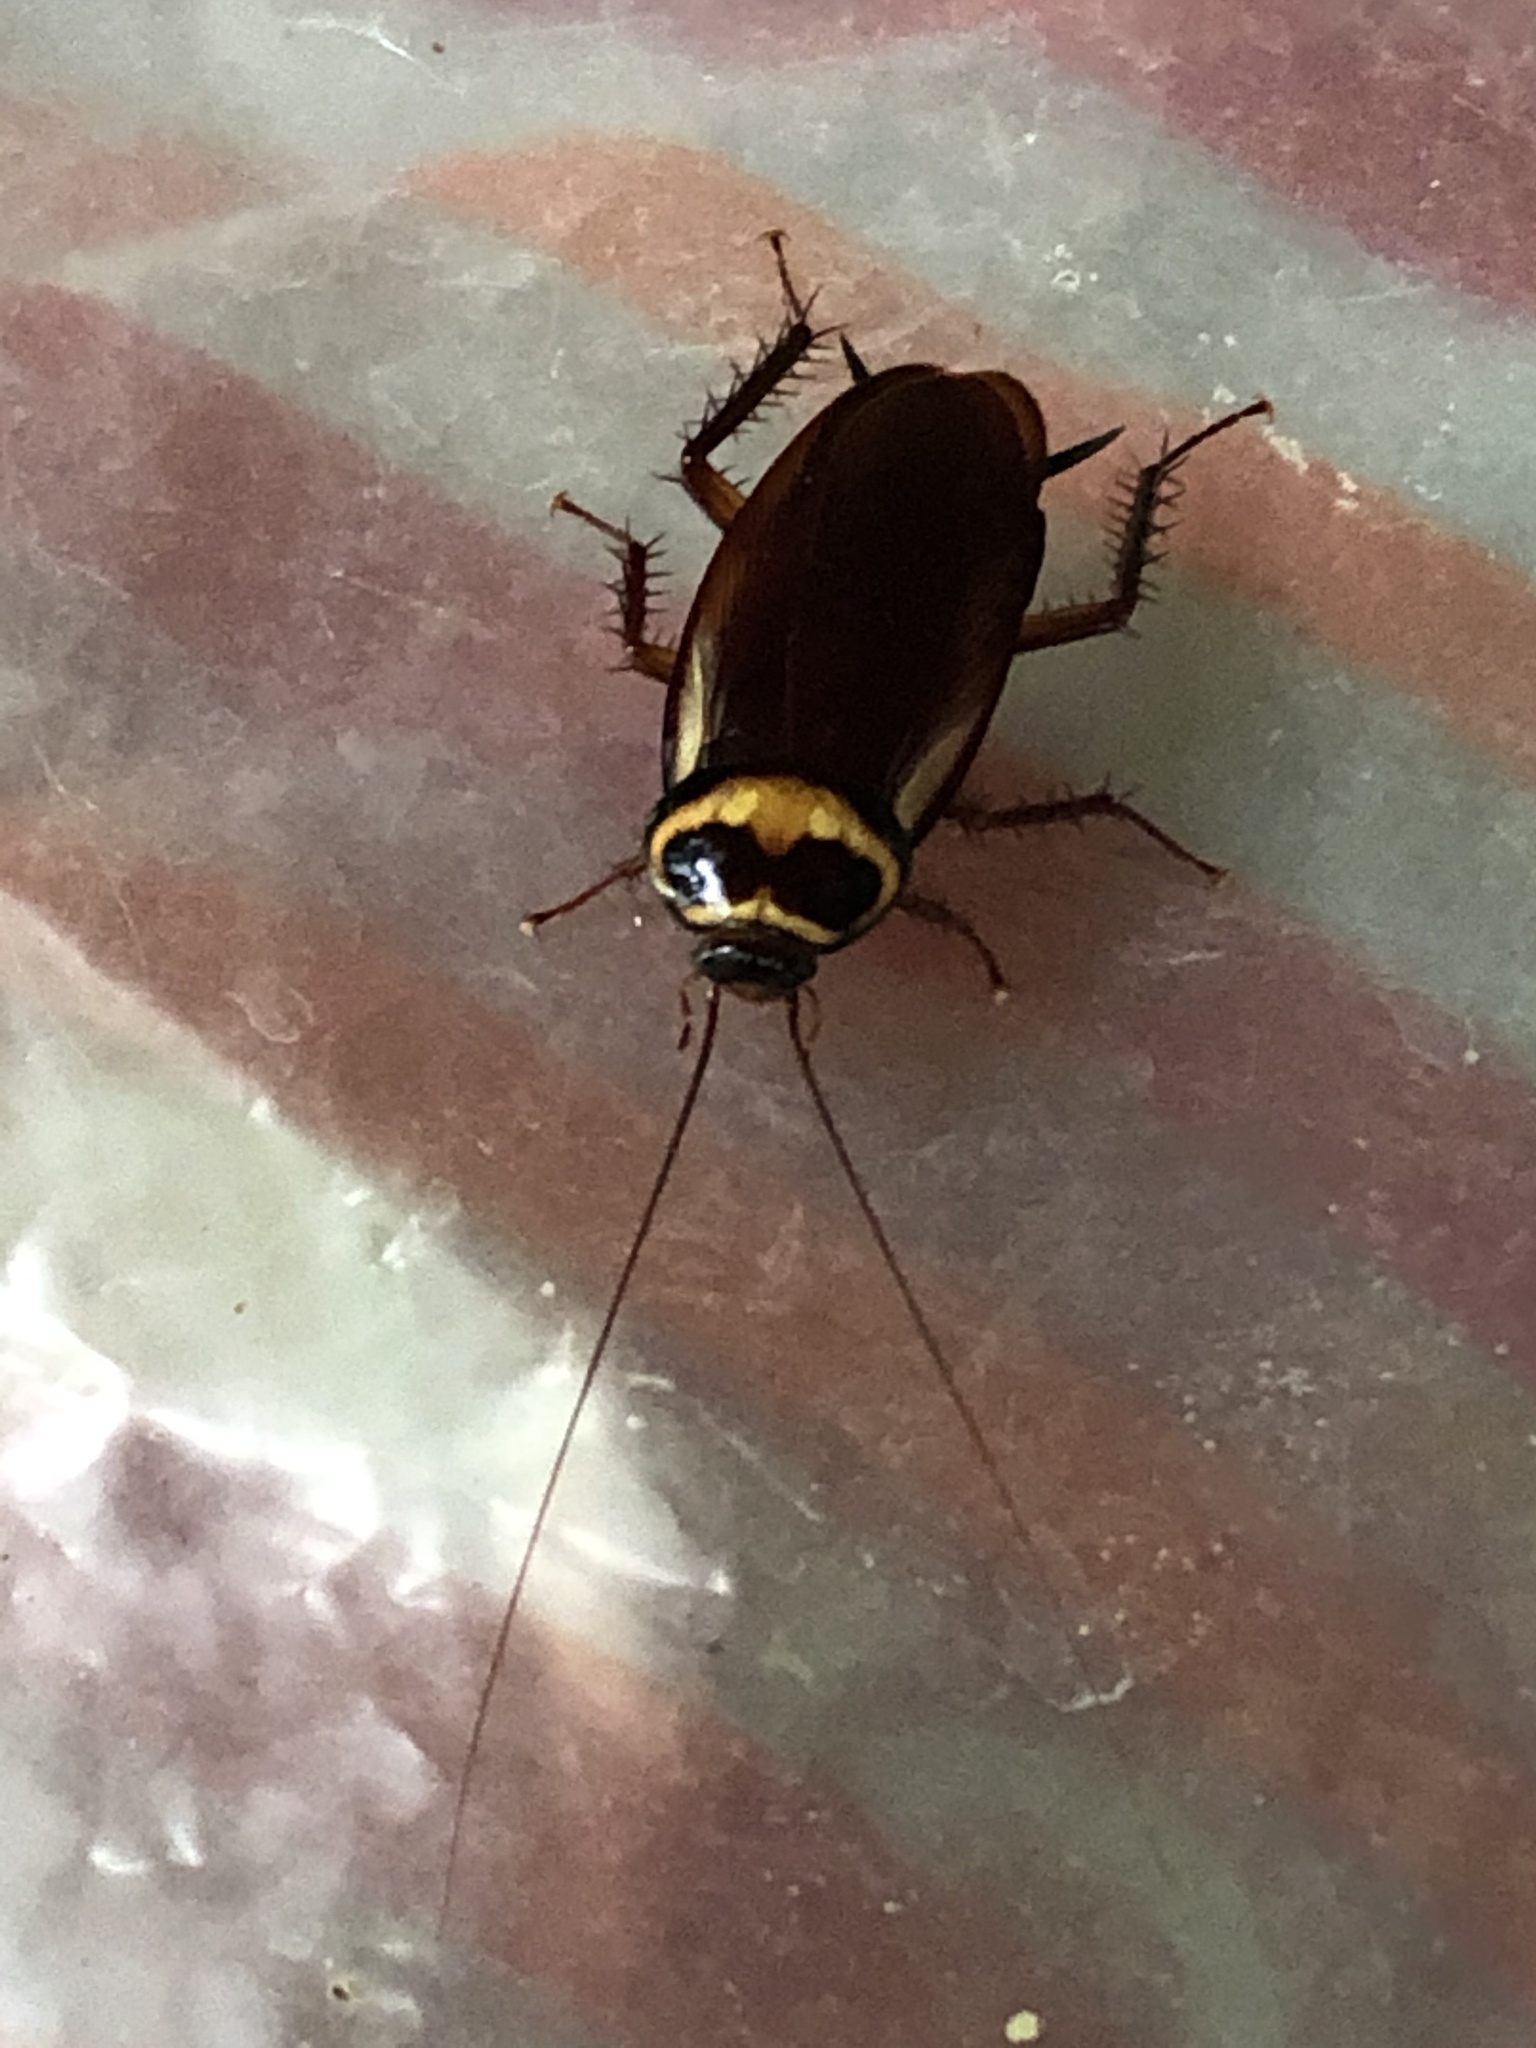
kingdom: Animalia
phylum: Arthropoda
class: Insecta
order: Blattodea
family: Blattidae
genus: Periplaneta
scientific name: Periplaneta australasiae
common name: Australian cockroach
